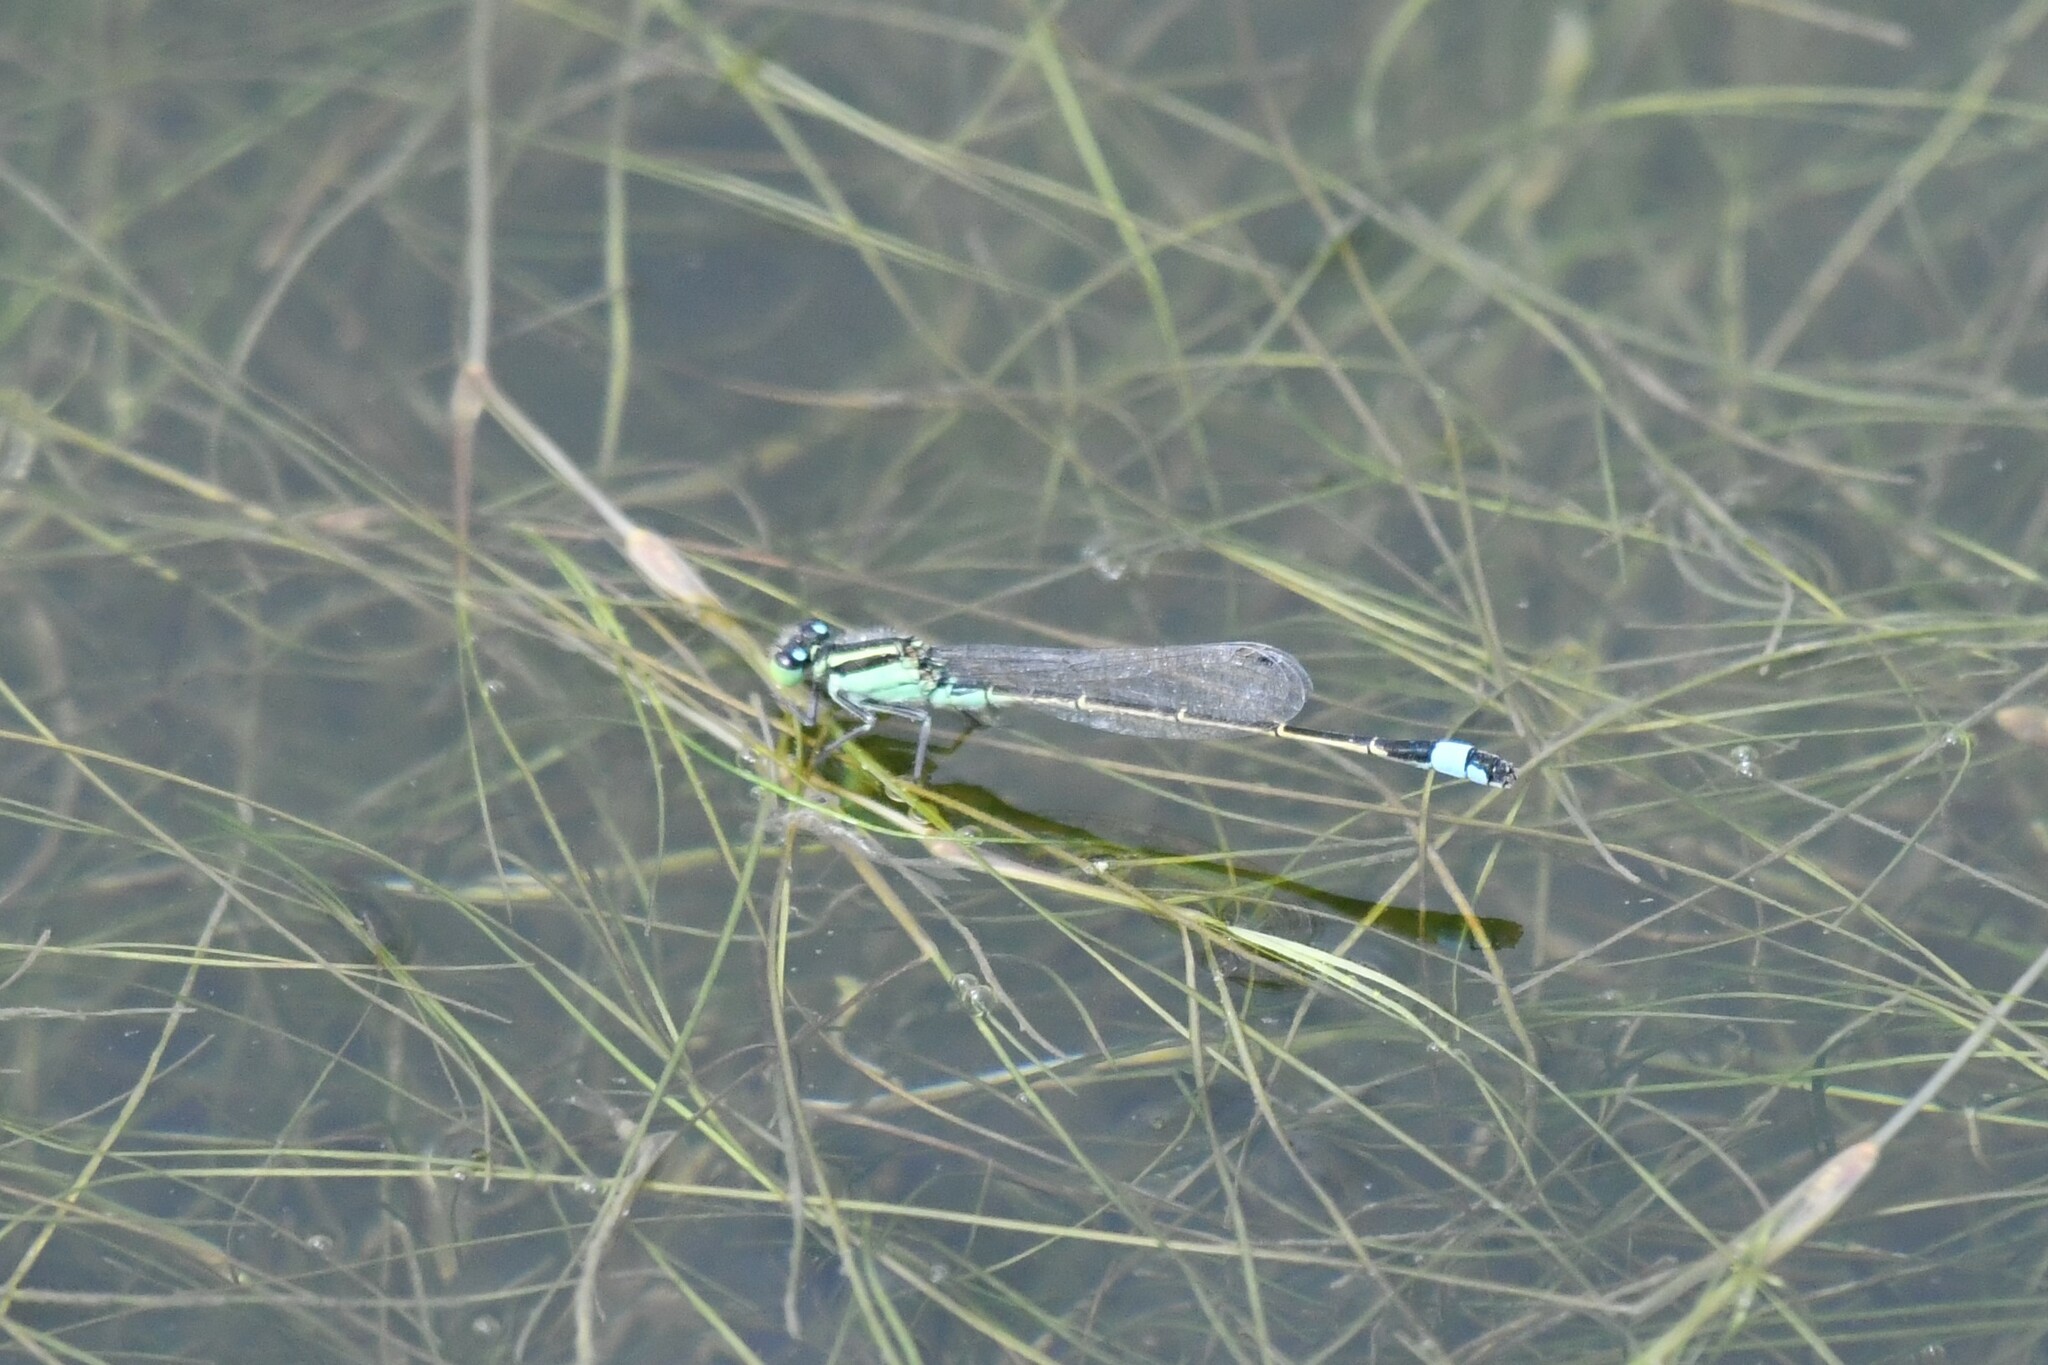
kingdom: Animalia
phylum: Arthropoda
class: Insecta
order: Odonata
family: Coenagrionidae
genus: Ischnura
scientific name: Ischnura ramburii
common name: Rambur's forktail
